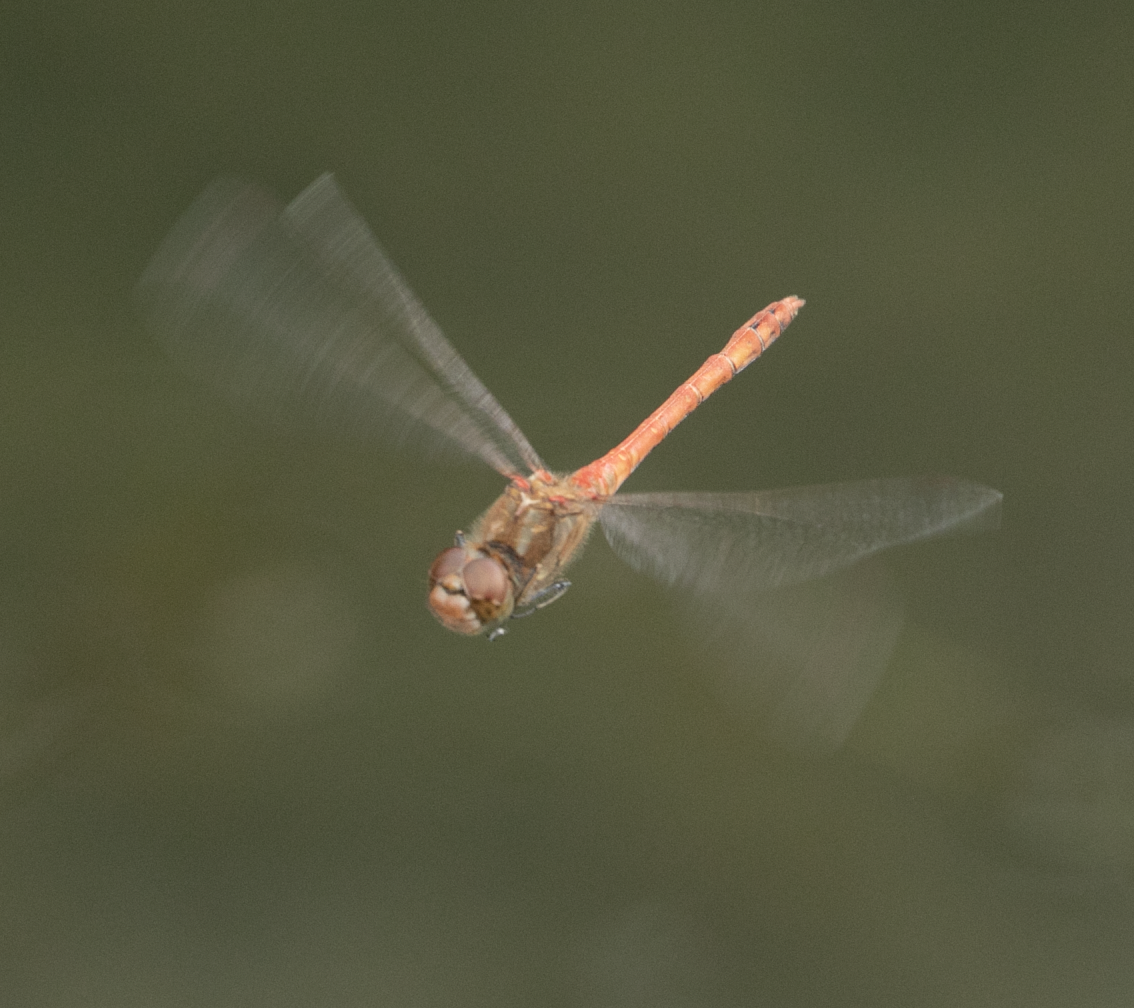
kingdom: Animalia
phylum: Arthropoda
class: Insecta
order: Odonata
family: Libellulidae
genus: Sympetrum
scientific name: Sympetrum striolatum
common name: Common darter
